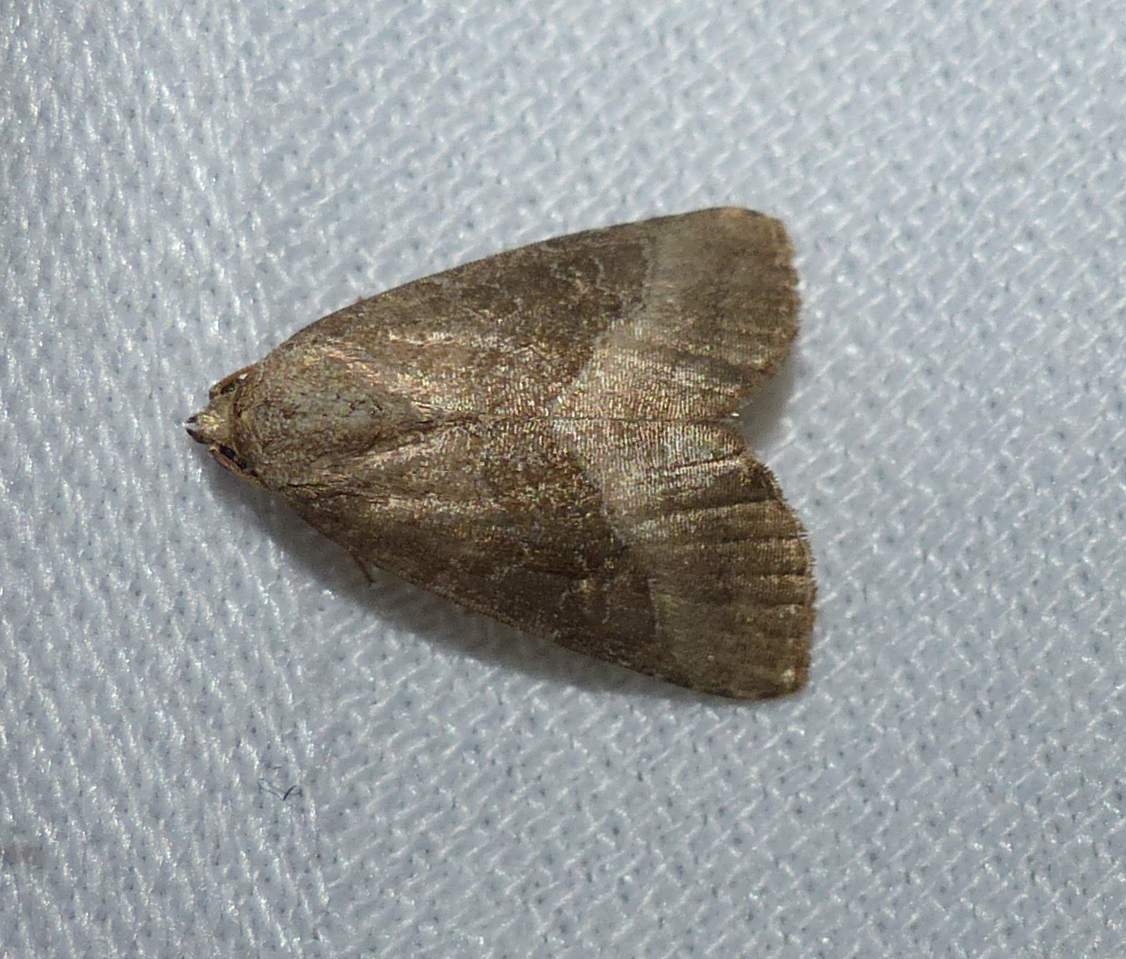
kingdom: Animalia
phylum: Arthropoda
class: Insecta
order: Lepidoptera
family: Noctuidae
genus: Ogdoconta
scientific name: Ogdoconta cinereola
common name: Common pinkband
